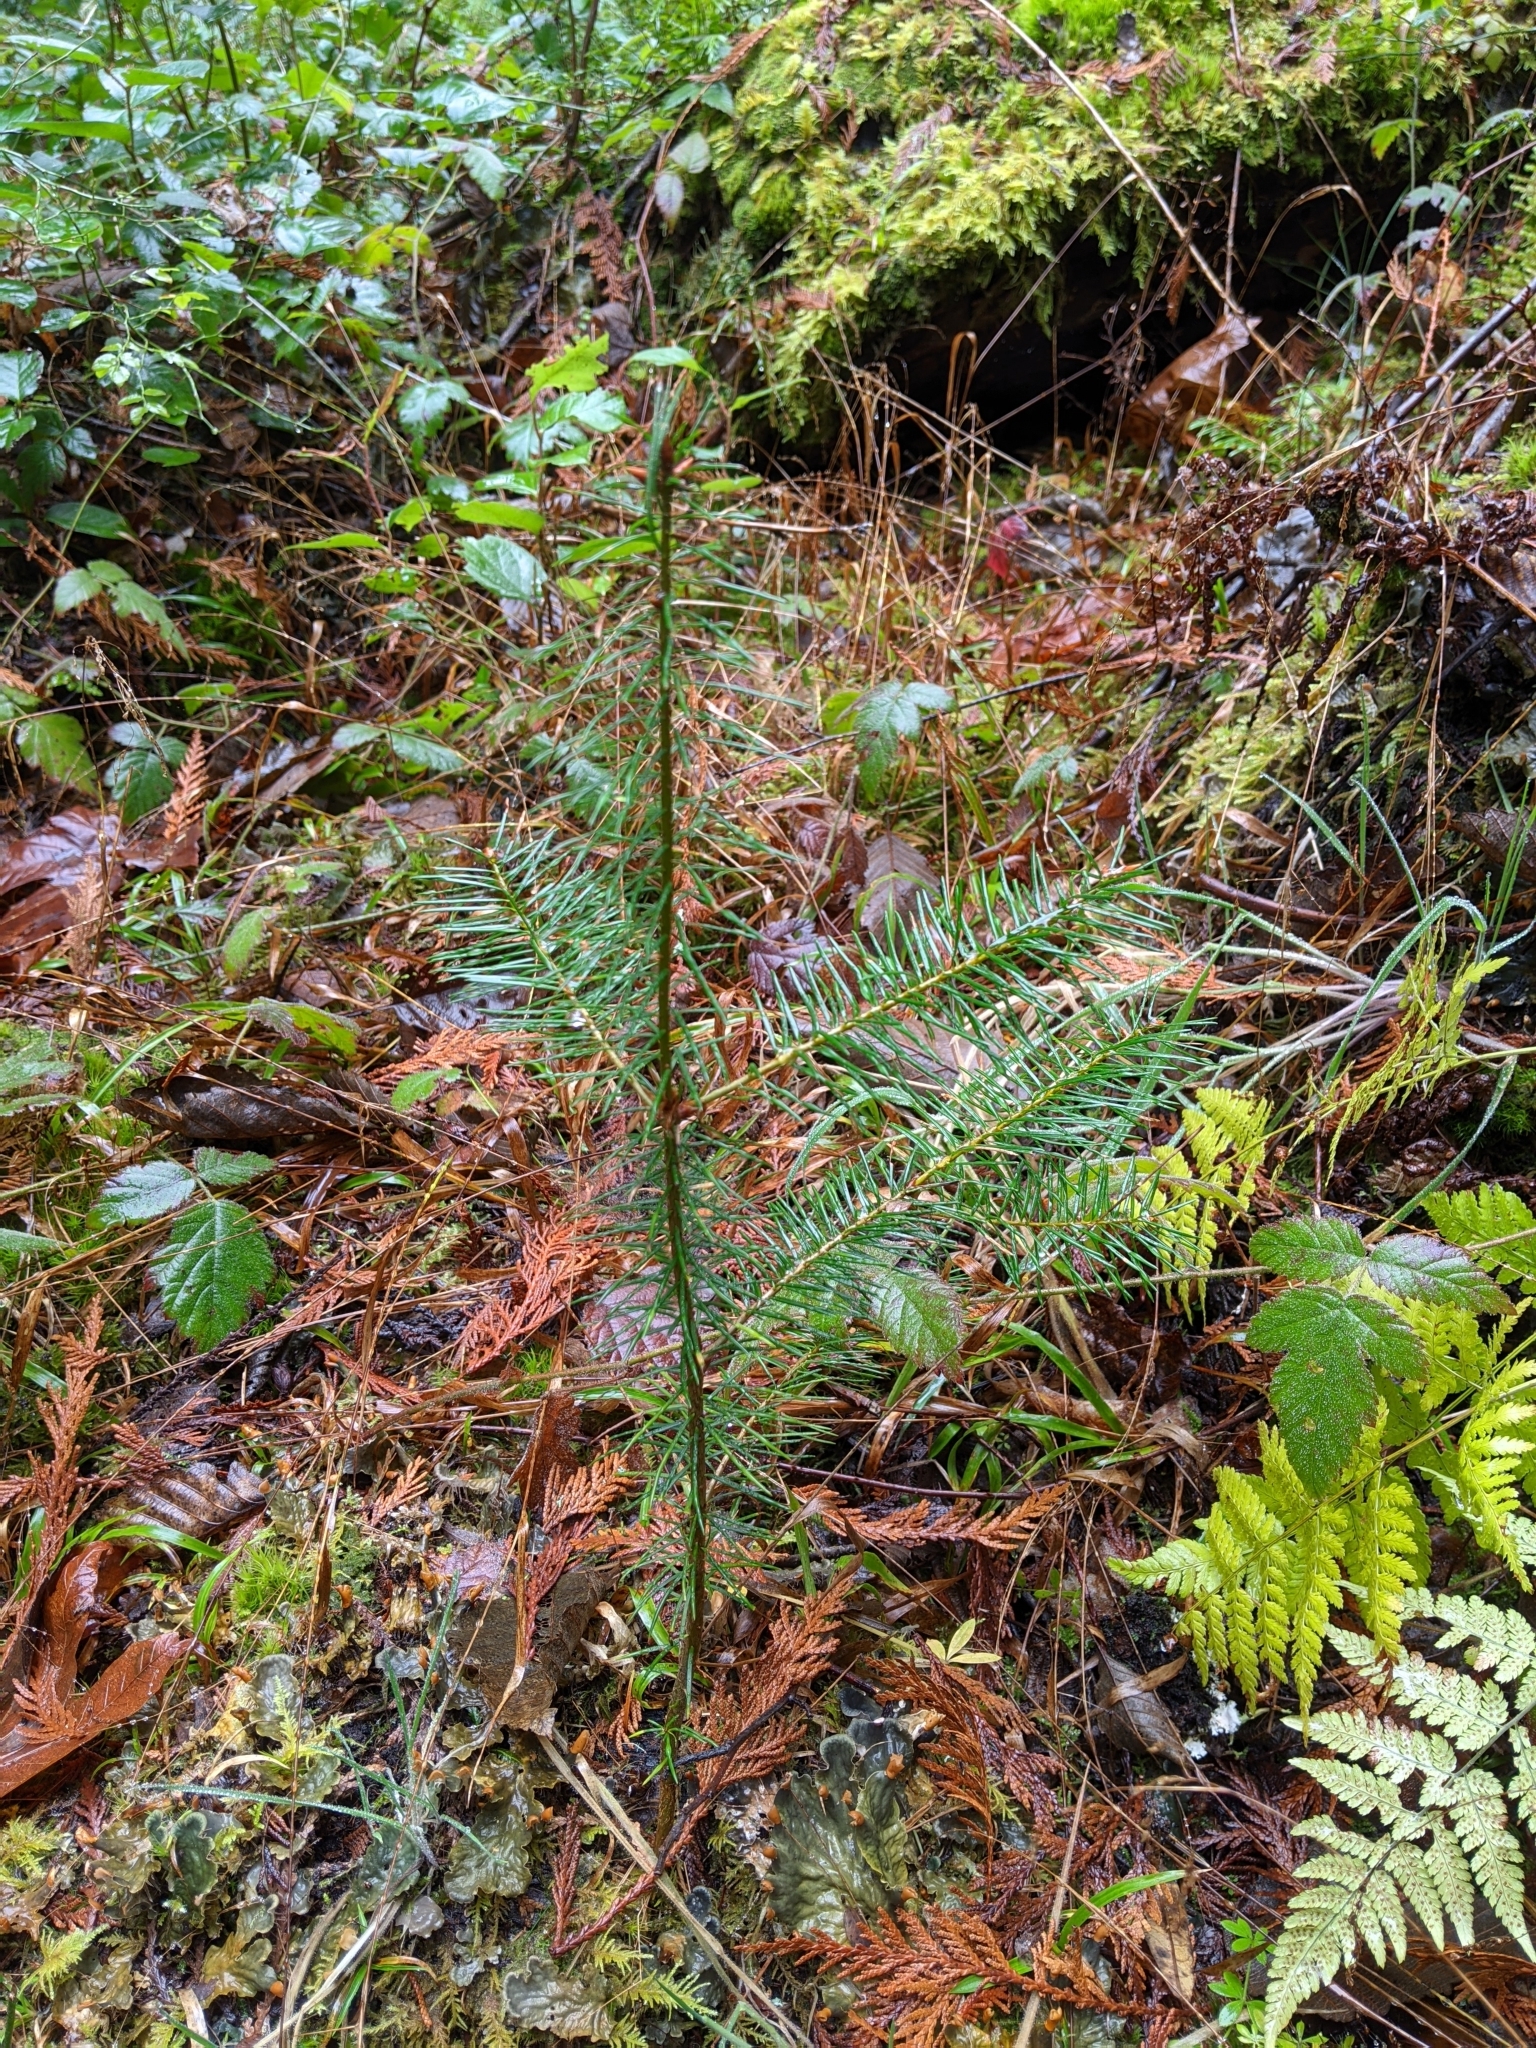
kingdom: Plantae
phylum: Tracheophyta
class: Pinopsida
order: Pinales
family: Pinaceae
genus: Pseudotsuga
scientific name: Pseudotsuga menziesii
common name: Douglas fir
